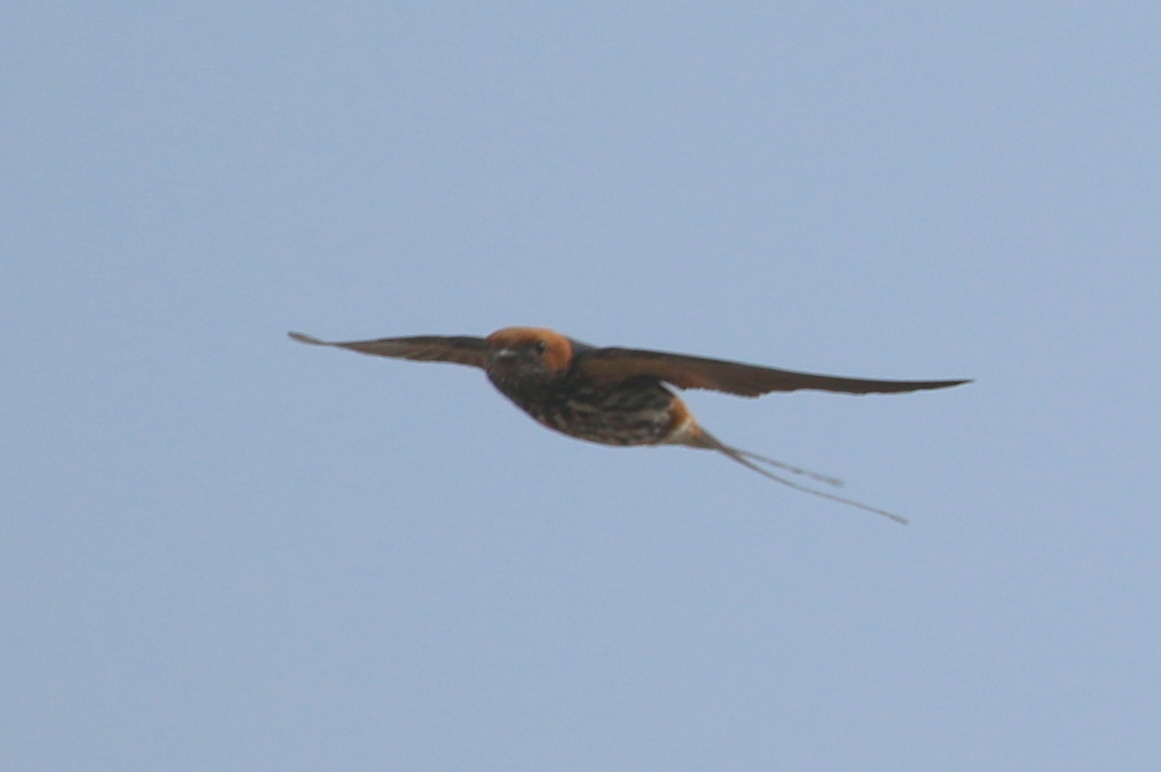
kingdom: Animalia
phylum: Chordata
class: Aves
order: Passeriformes
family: Hirundinidae
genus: Cecropis
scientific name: Cecropis abyssinica
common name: Lesser striped-swallow
